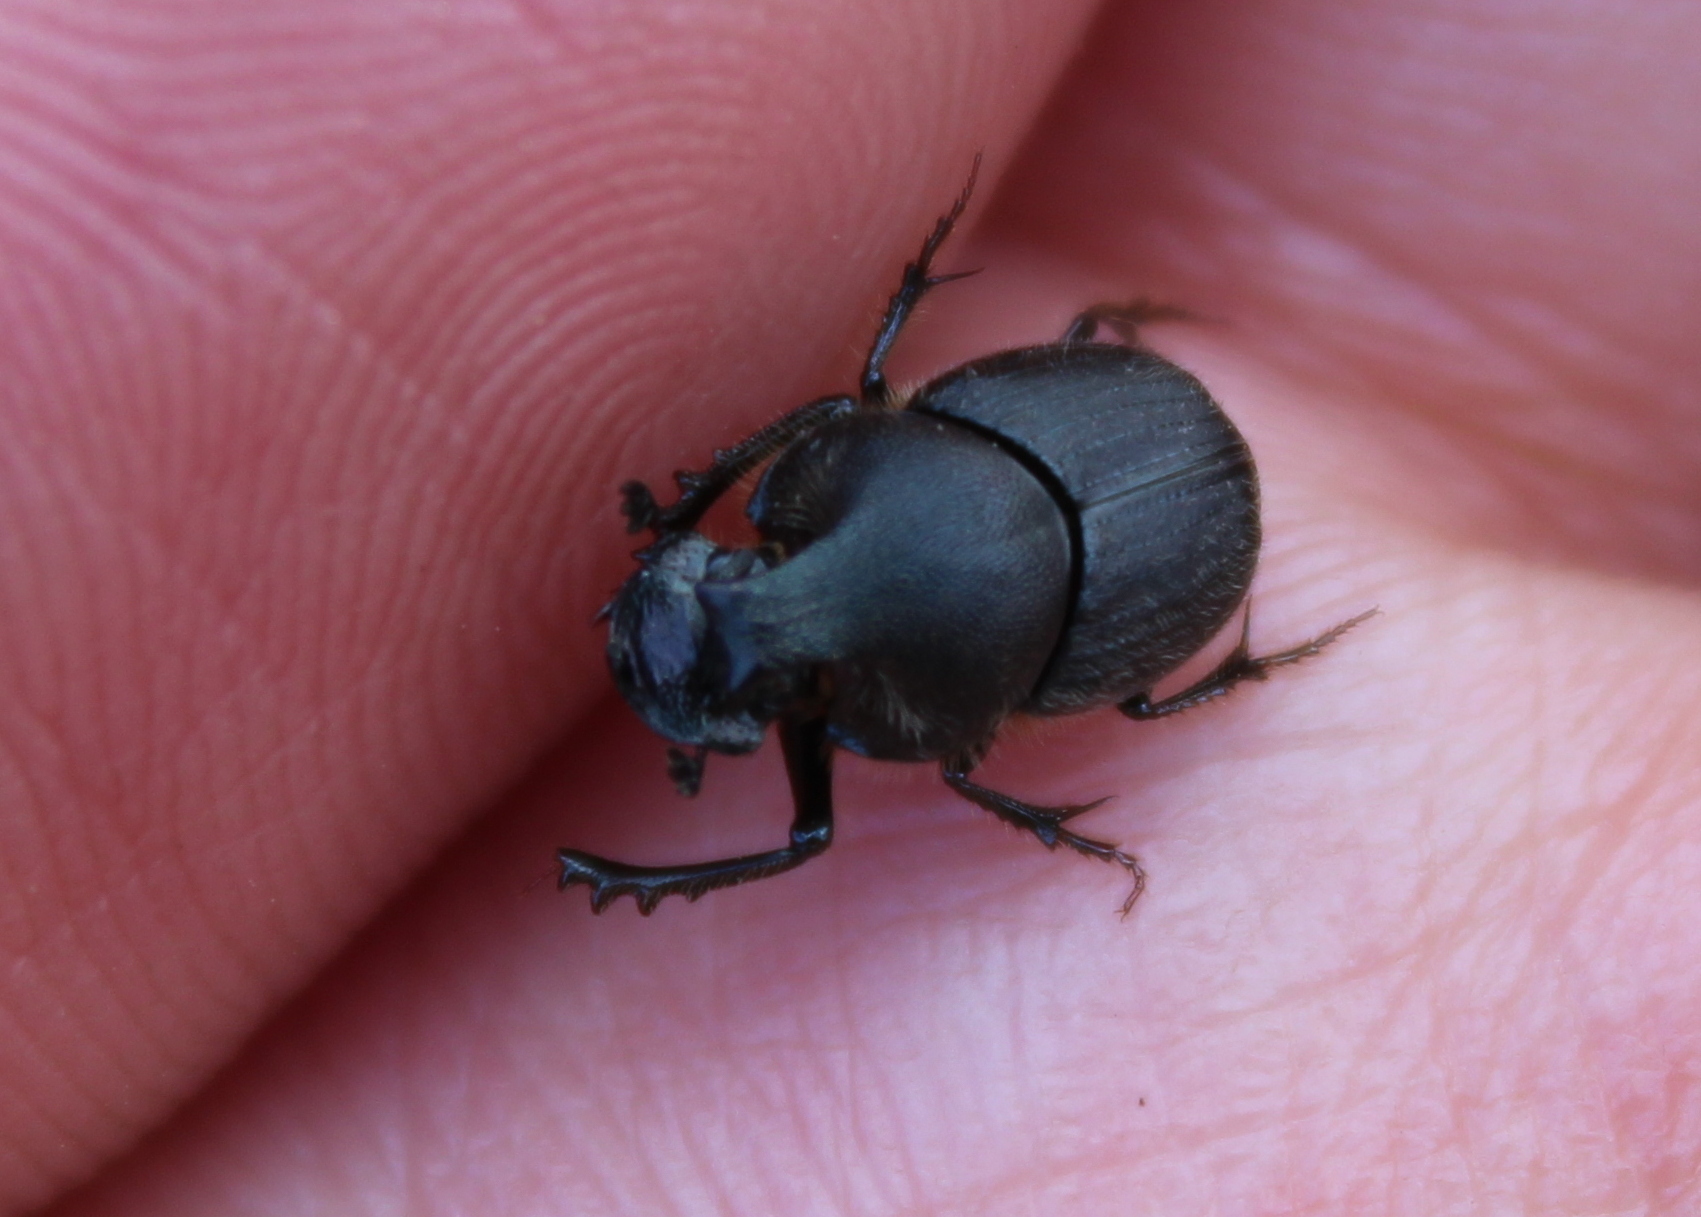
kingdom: Animalia
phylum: Arthropoda
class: Insecta
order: Coleoptera
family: Scarabaeidae
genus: Onthophagus
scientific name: Onthophagus hecate
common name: Scooped scarab
